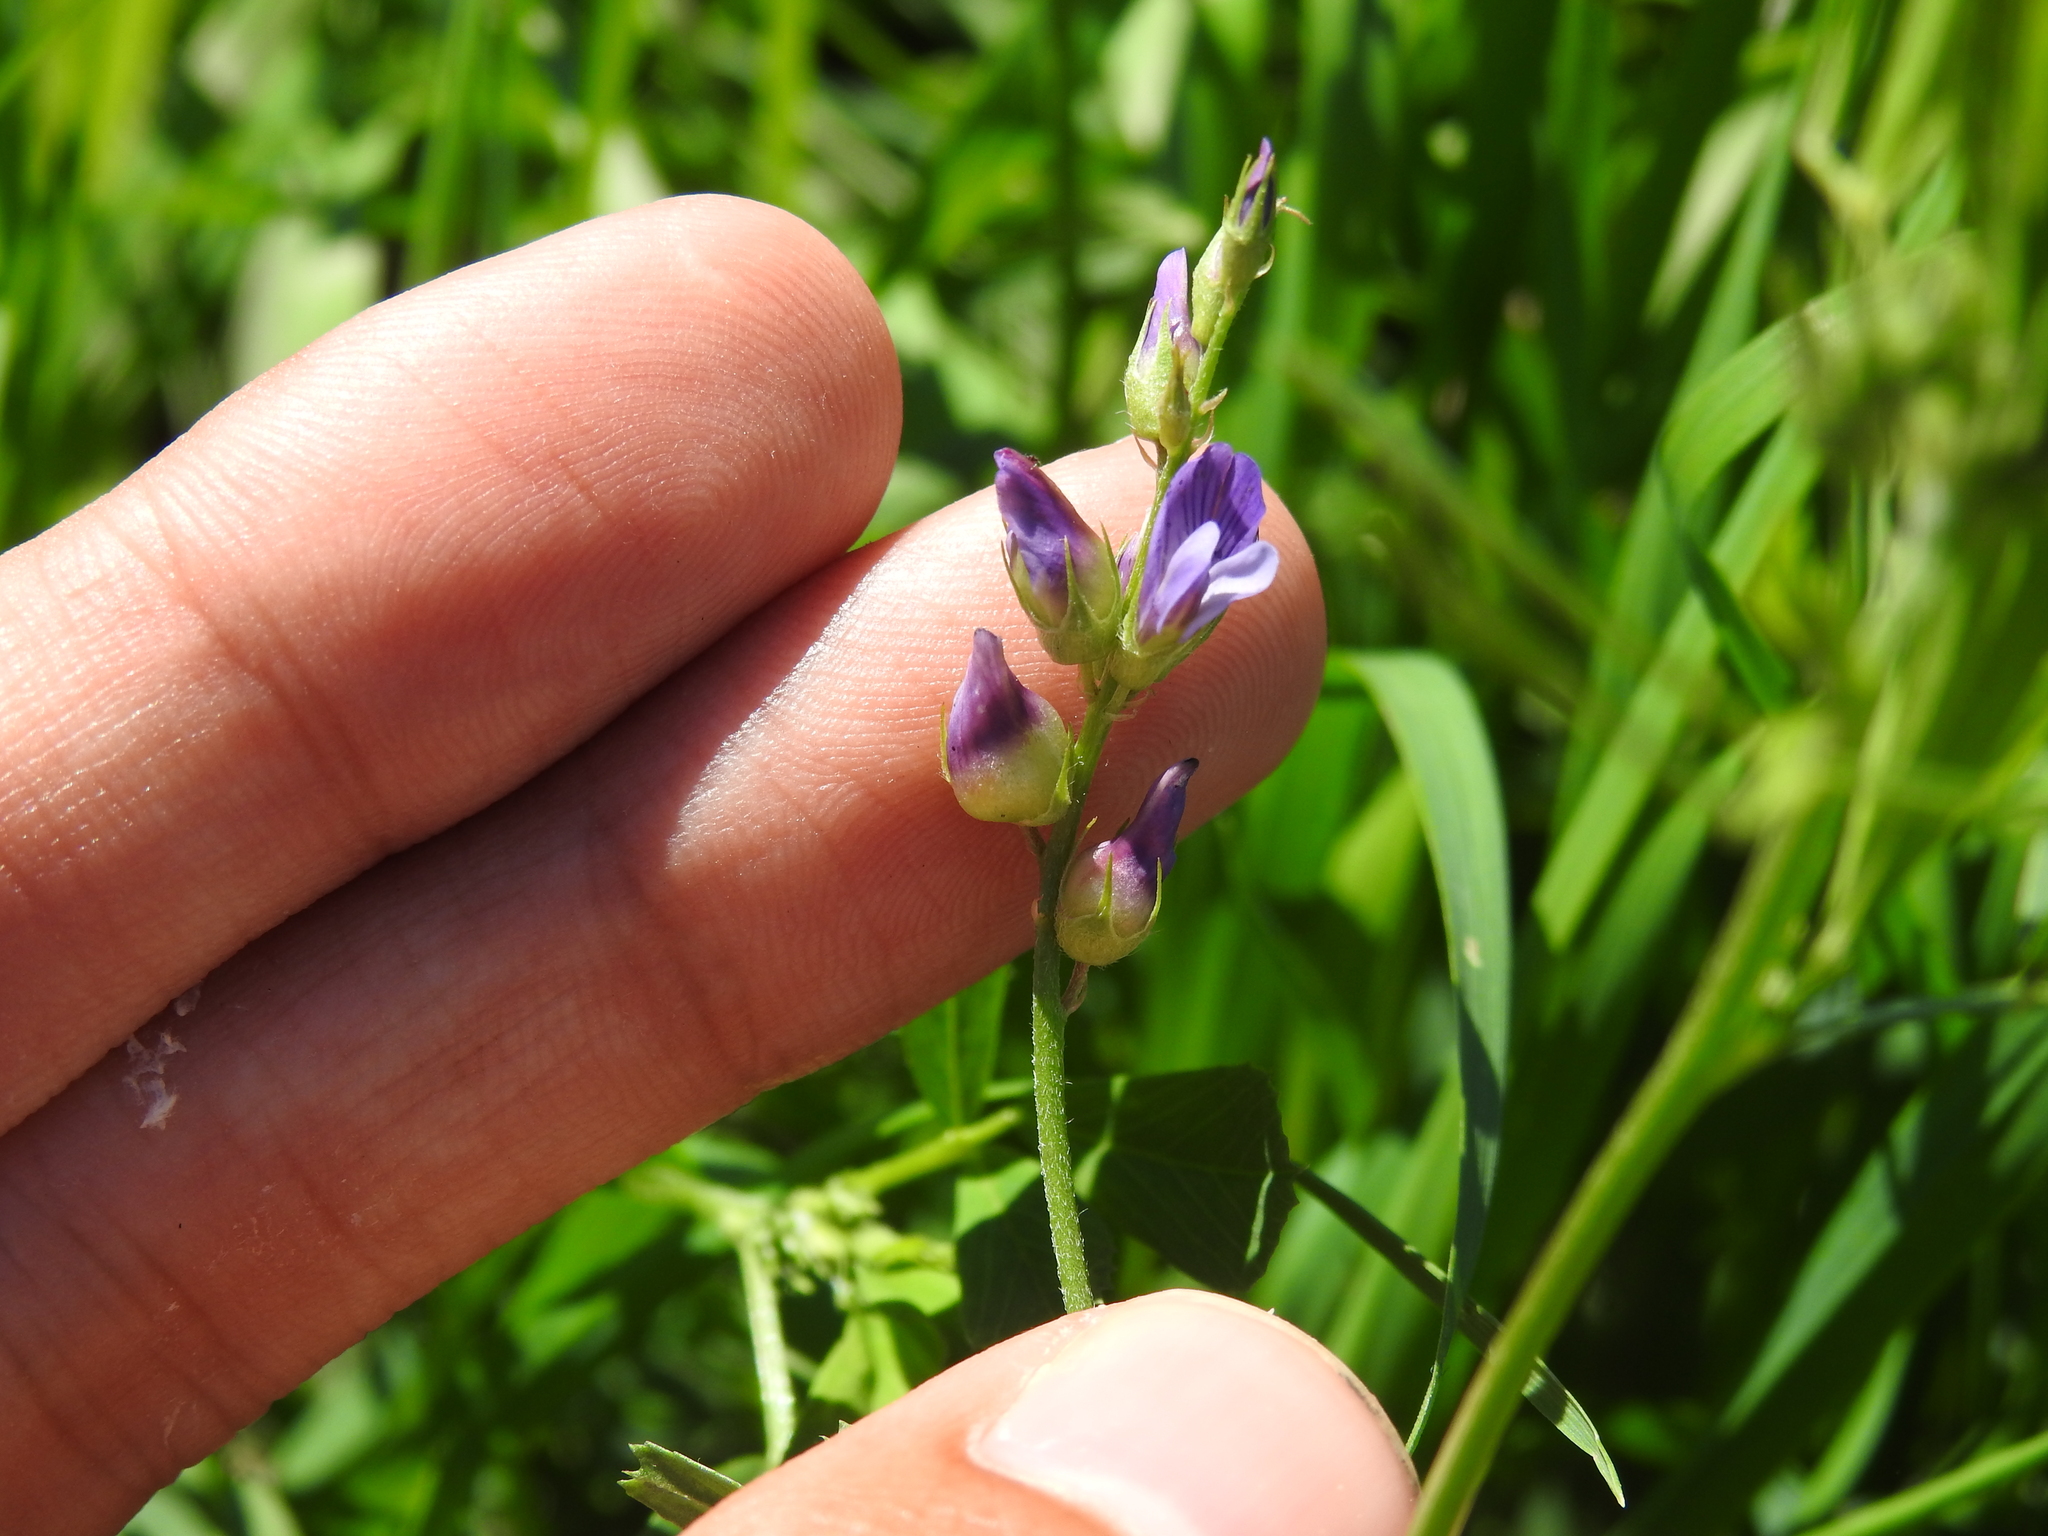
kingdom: Animalia
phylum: Arthropoda
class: Insecta
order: Diptera
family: Cecidomyiidae
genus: Contarinia
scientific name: Contarinia medicaginis
